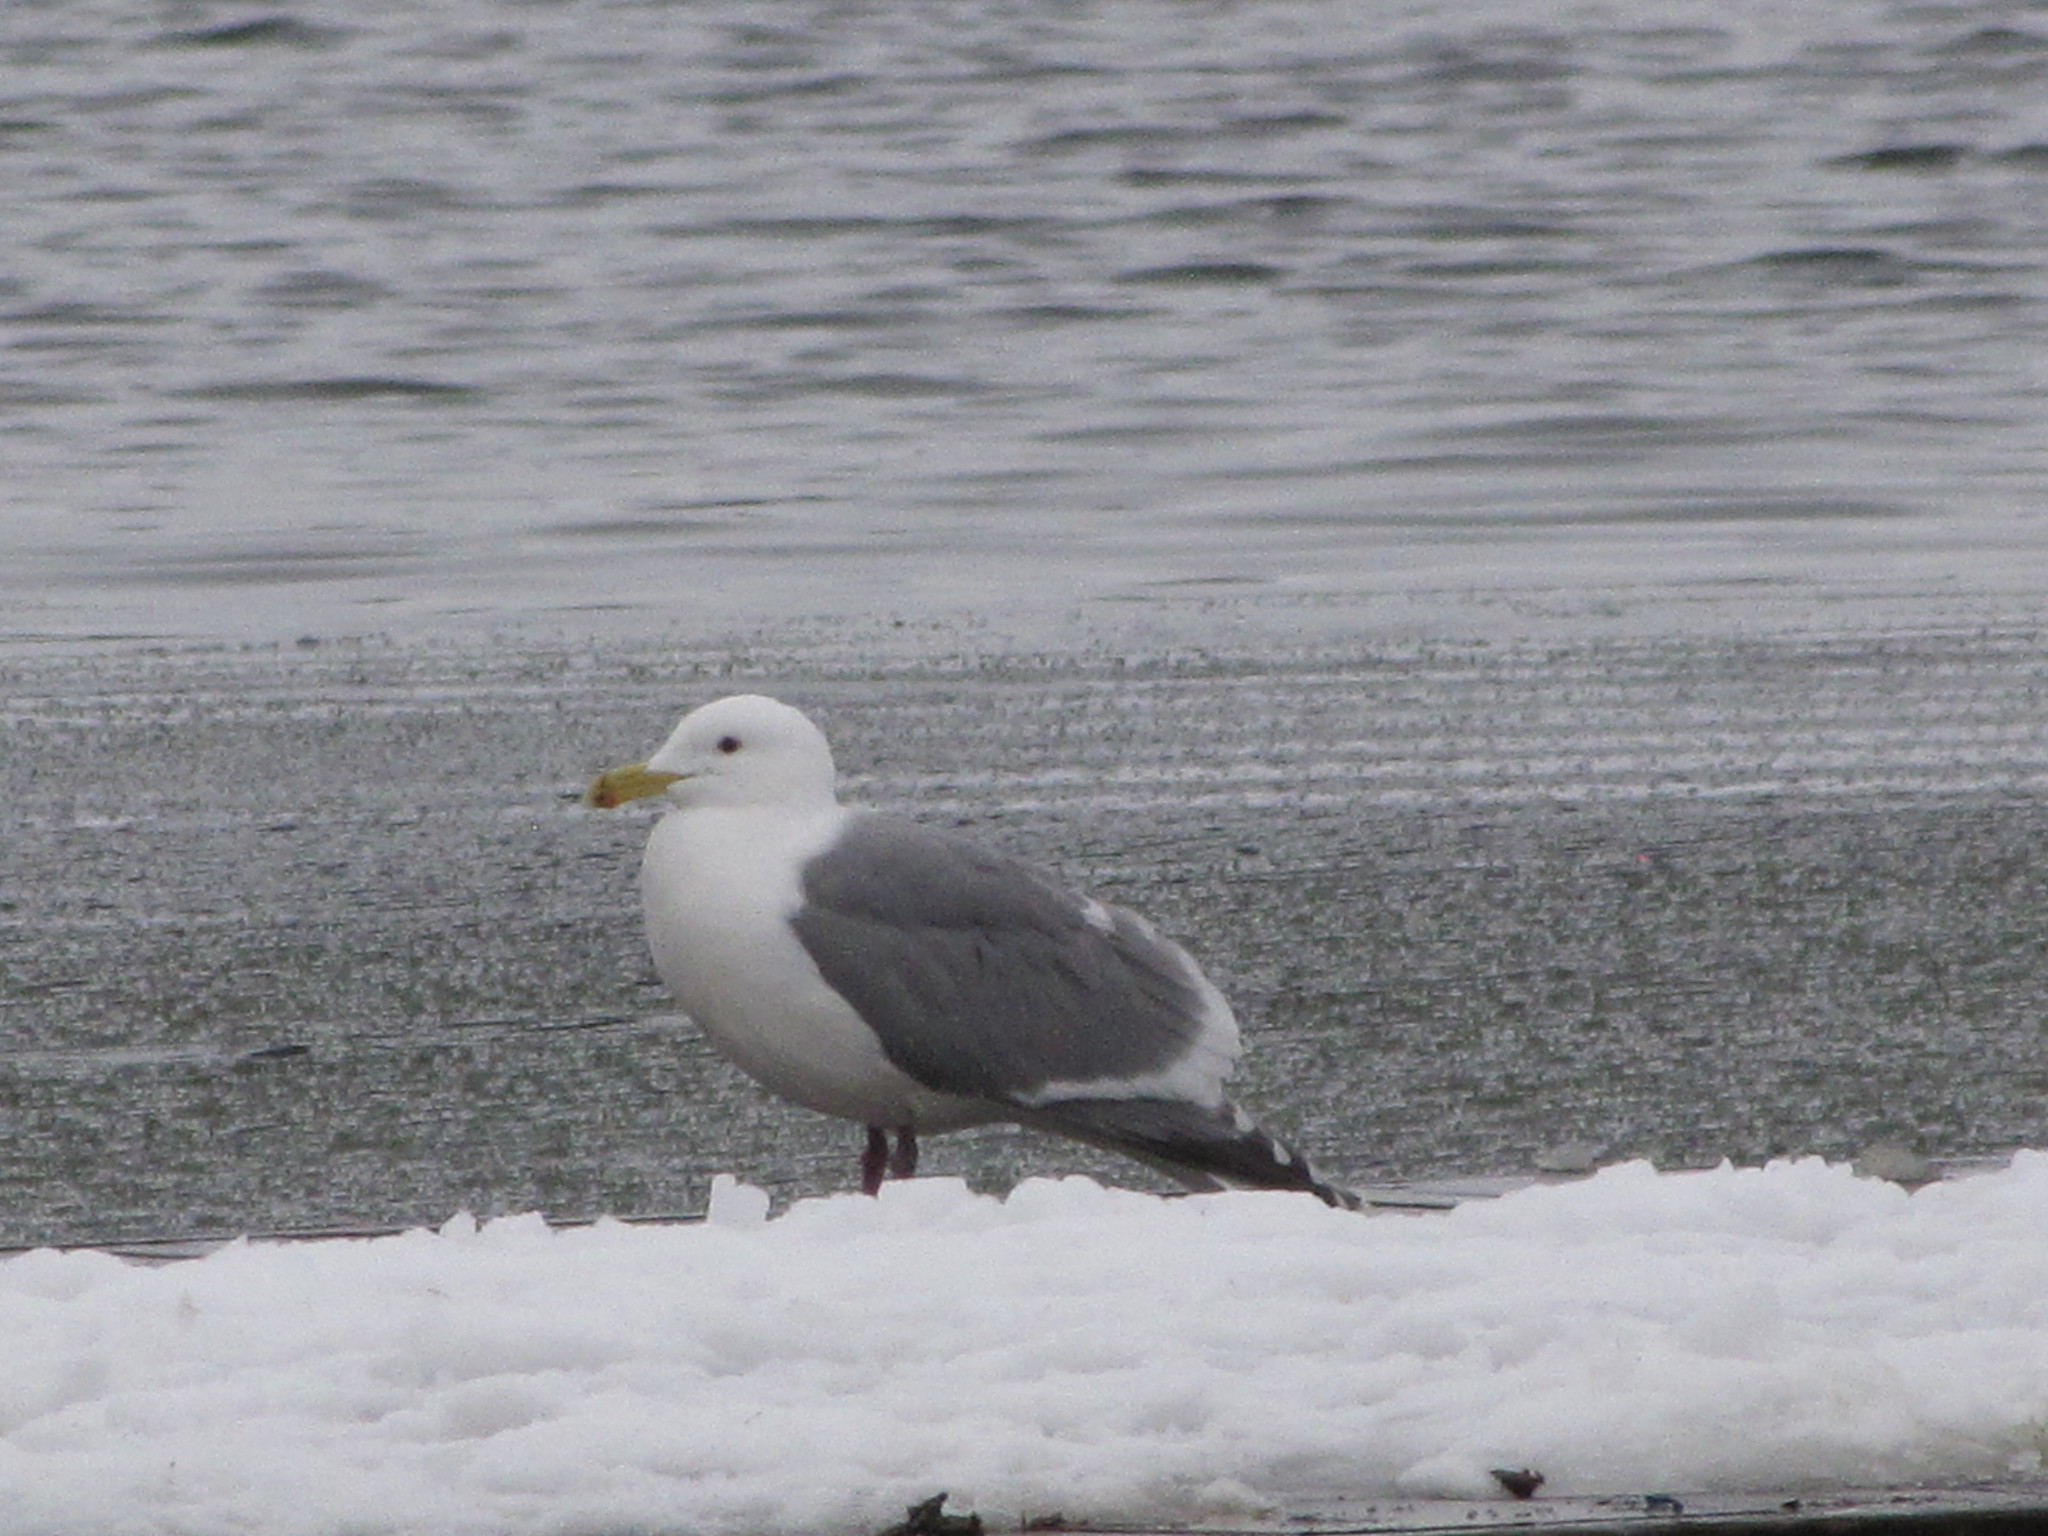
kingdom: Animalia
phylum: Chordata
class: Aves
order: Charadriiformes
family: Laridae
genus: Larus
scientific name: Larus
